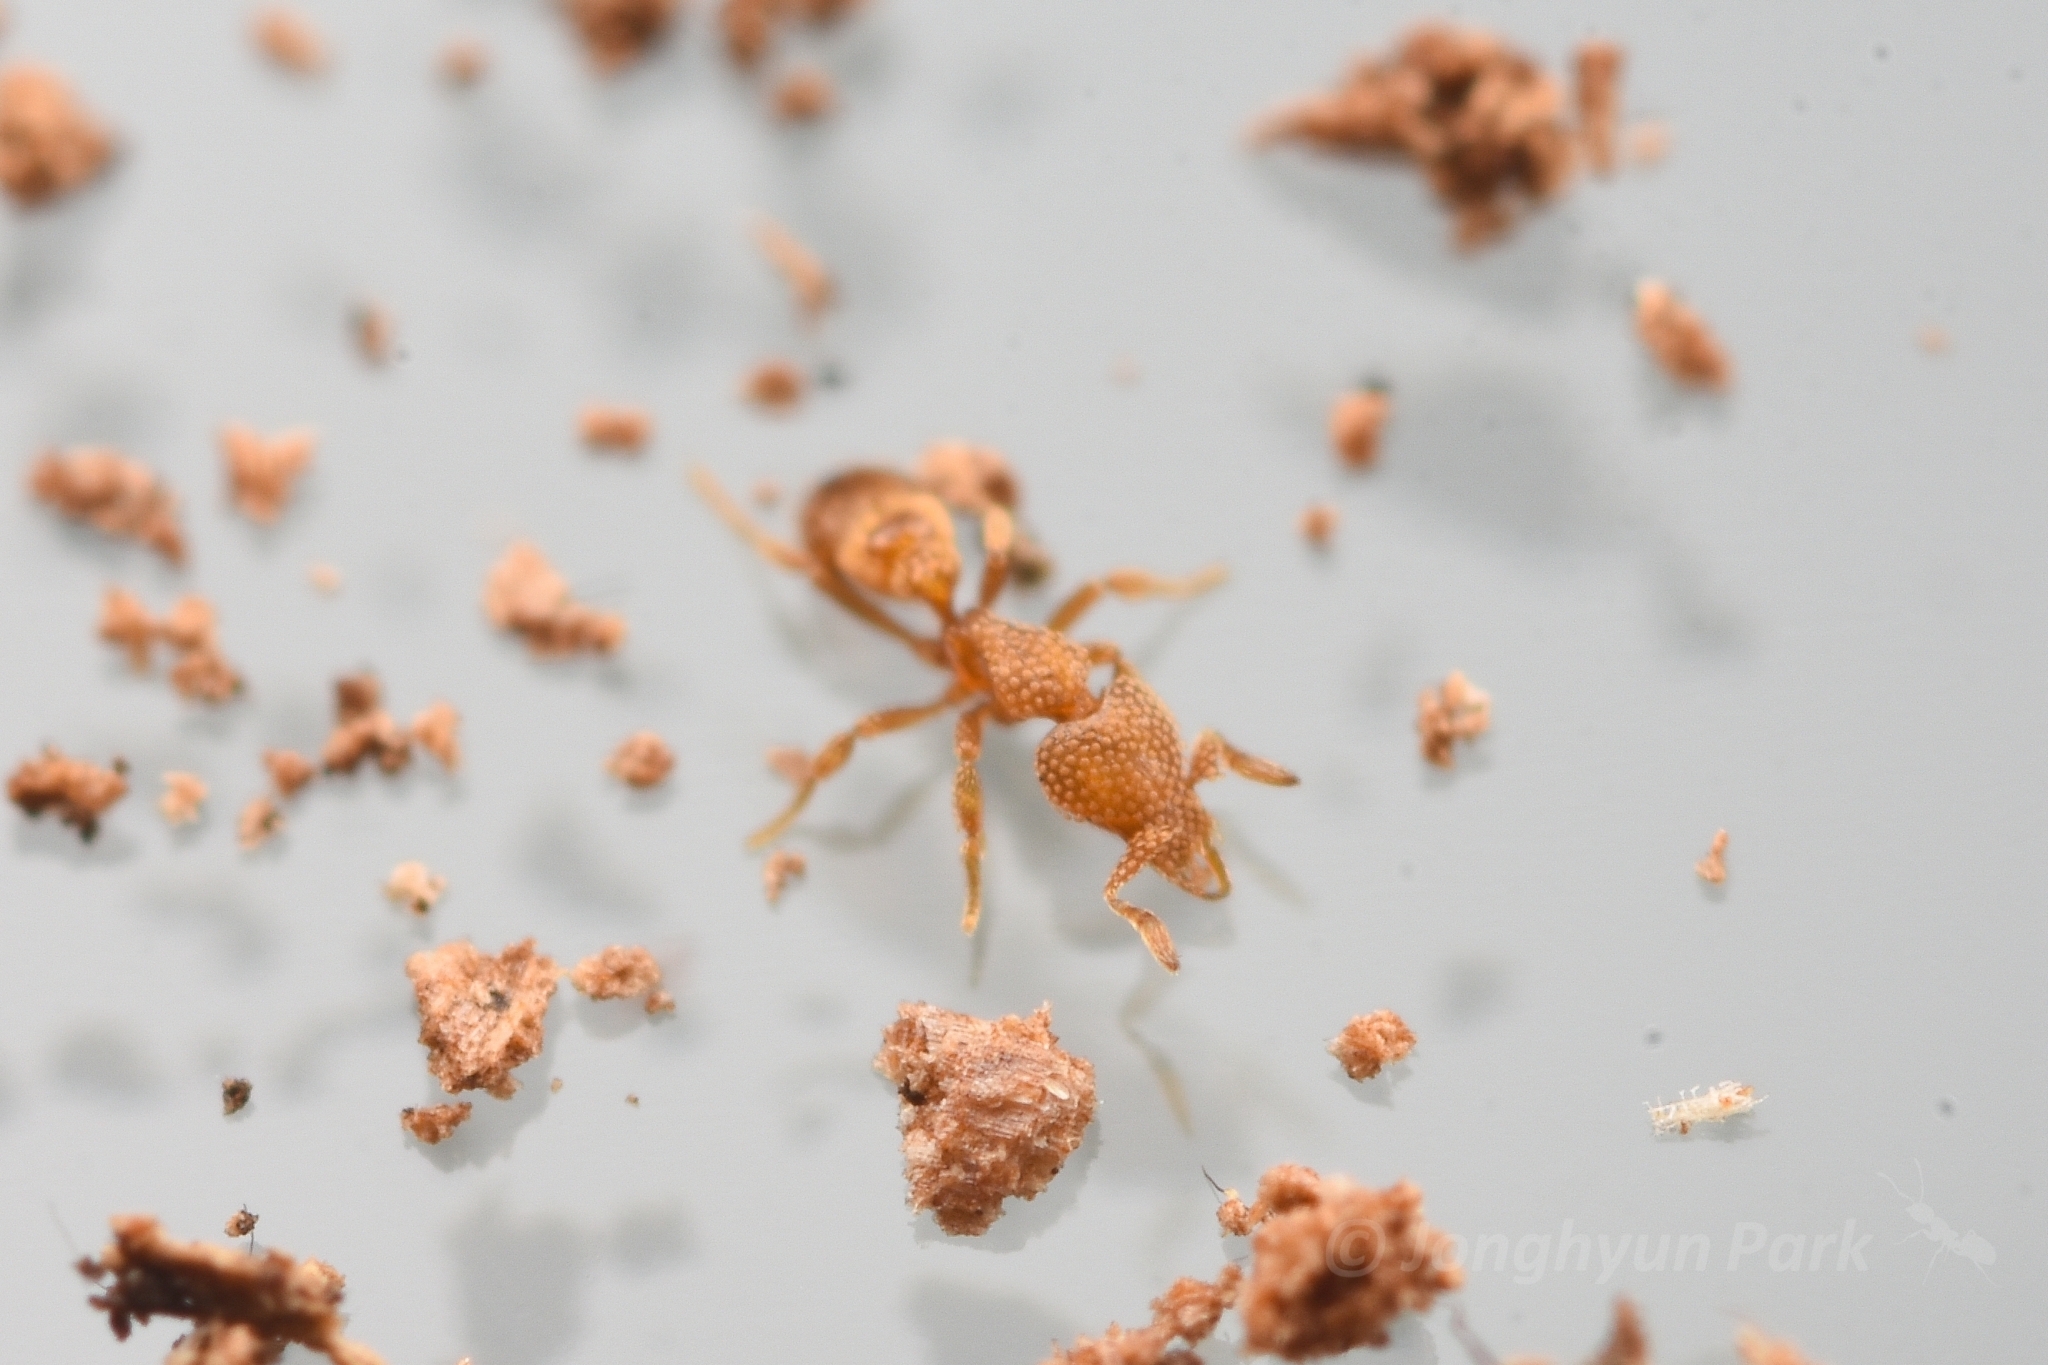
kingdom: Animalia
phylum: Arthropoda
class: Insecta
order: Hymenoptera
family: Formicidae
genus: Pyramica
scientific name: Pyramica hirashimai
